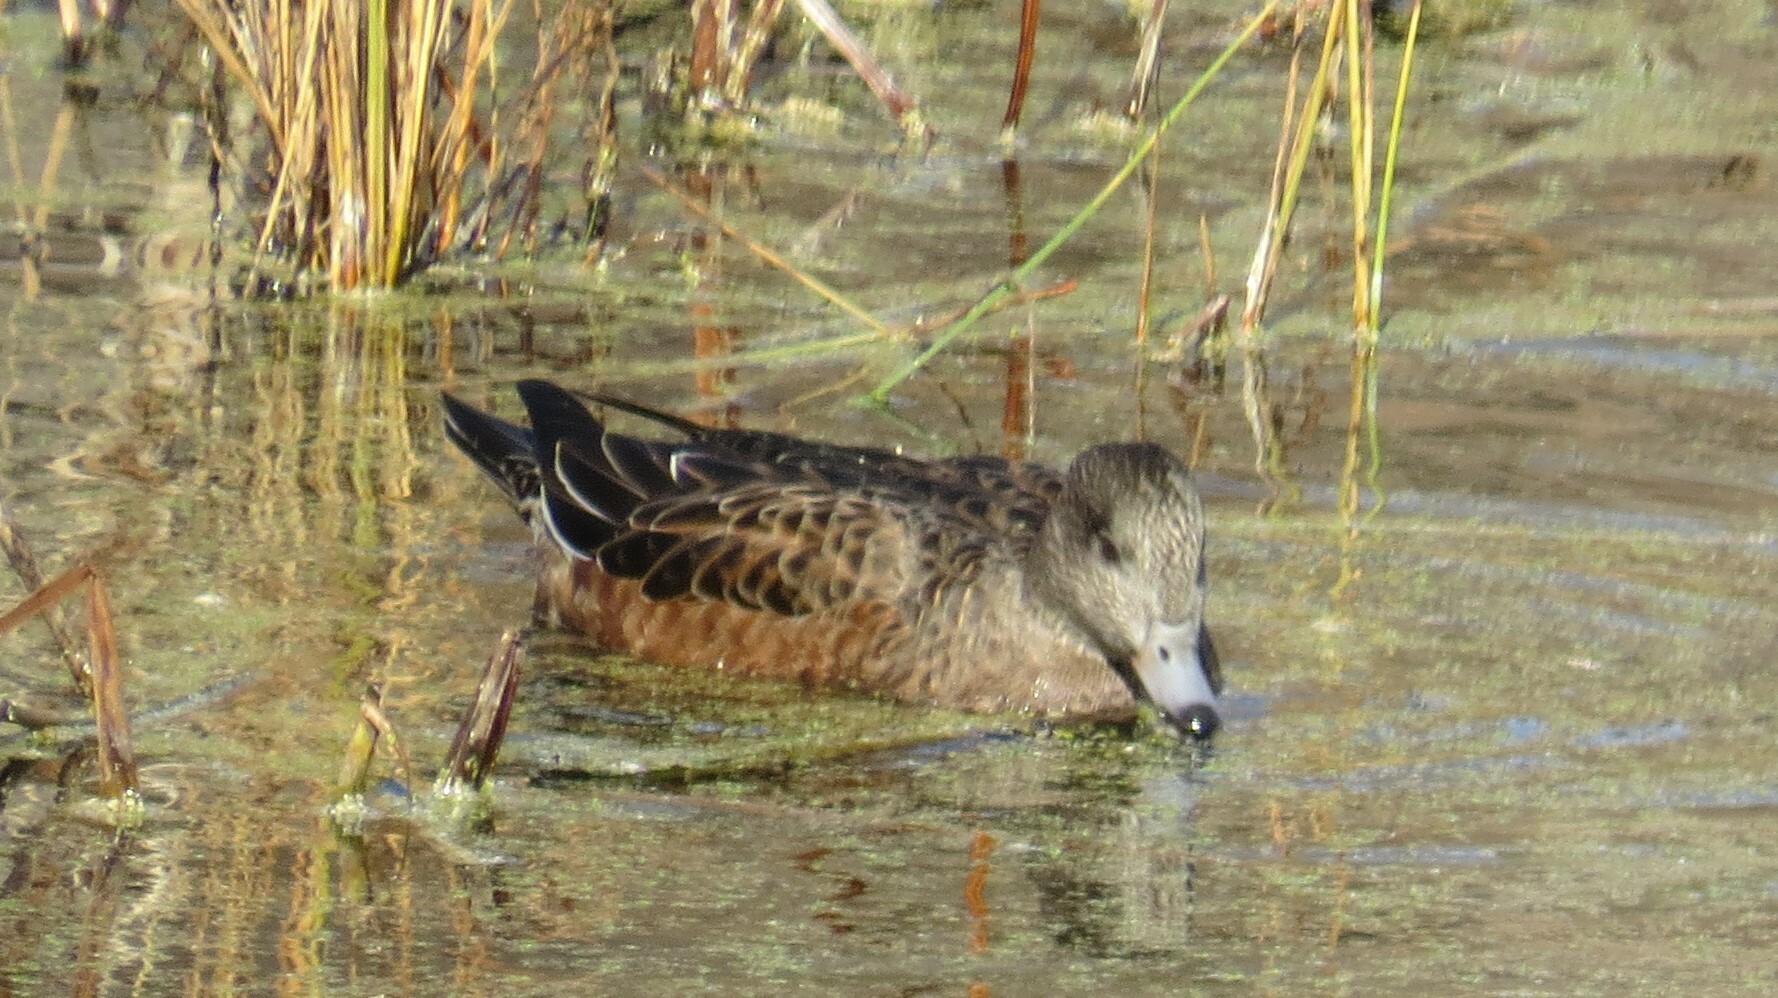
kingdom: Animalia
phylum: Chordata
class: Aves
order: Anseriformes
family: Anatidae
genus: Mareca
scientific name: Mareca americana
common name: American wigeon
